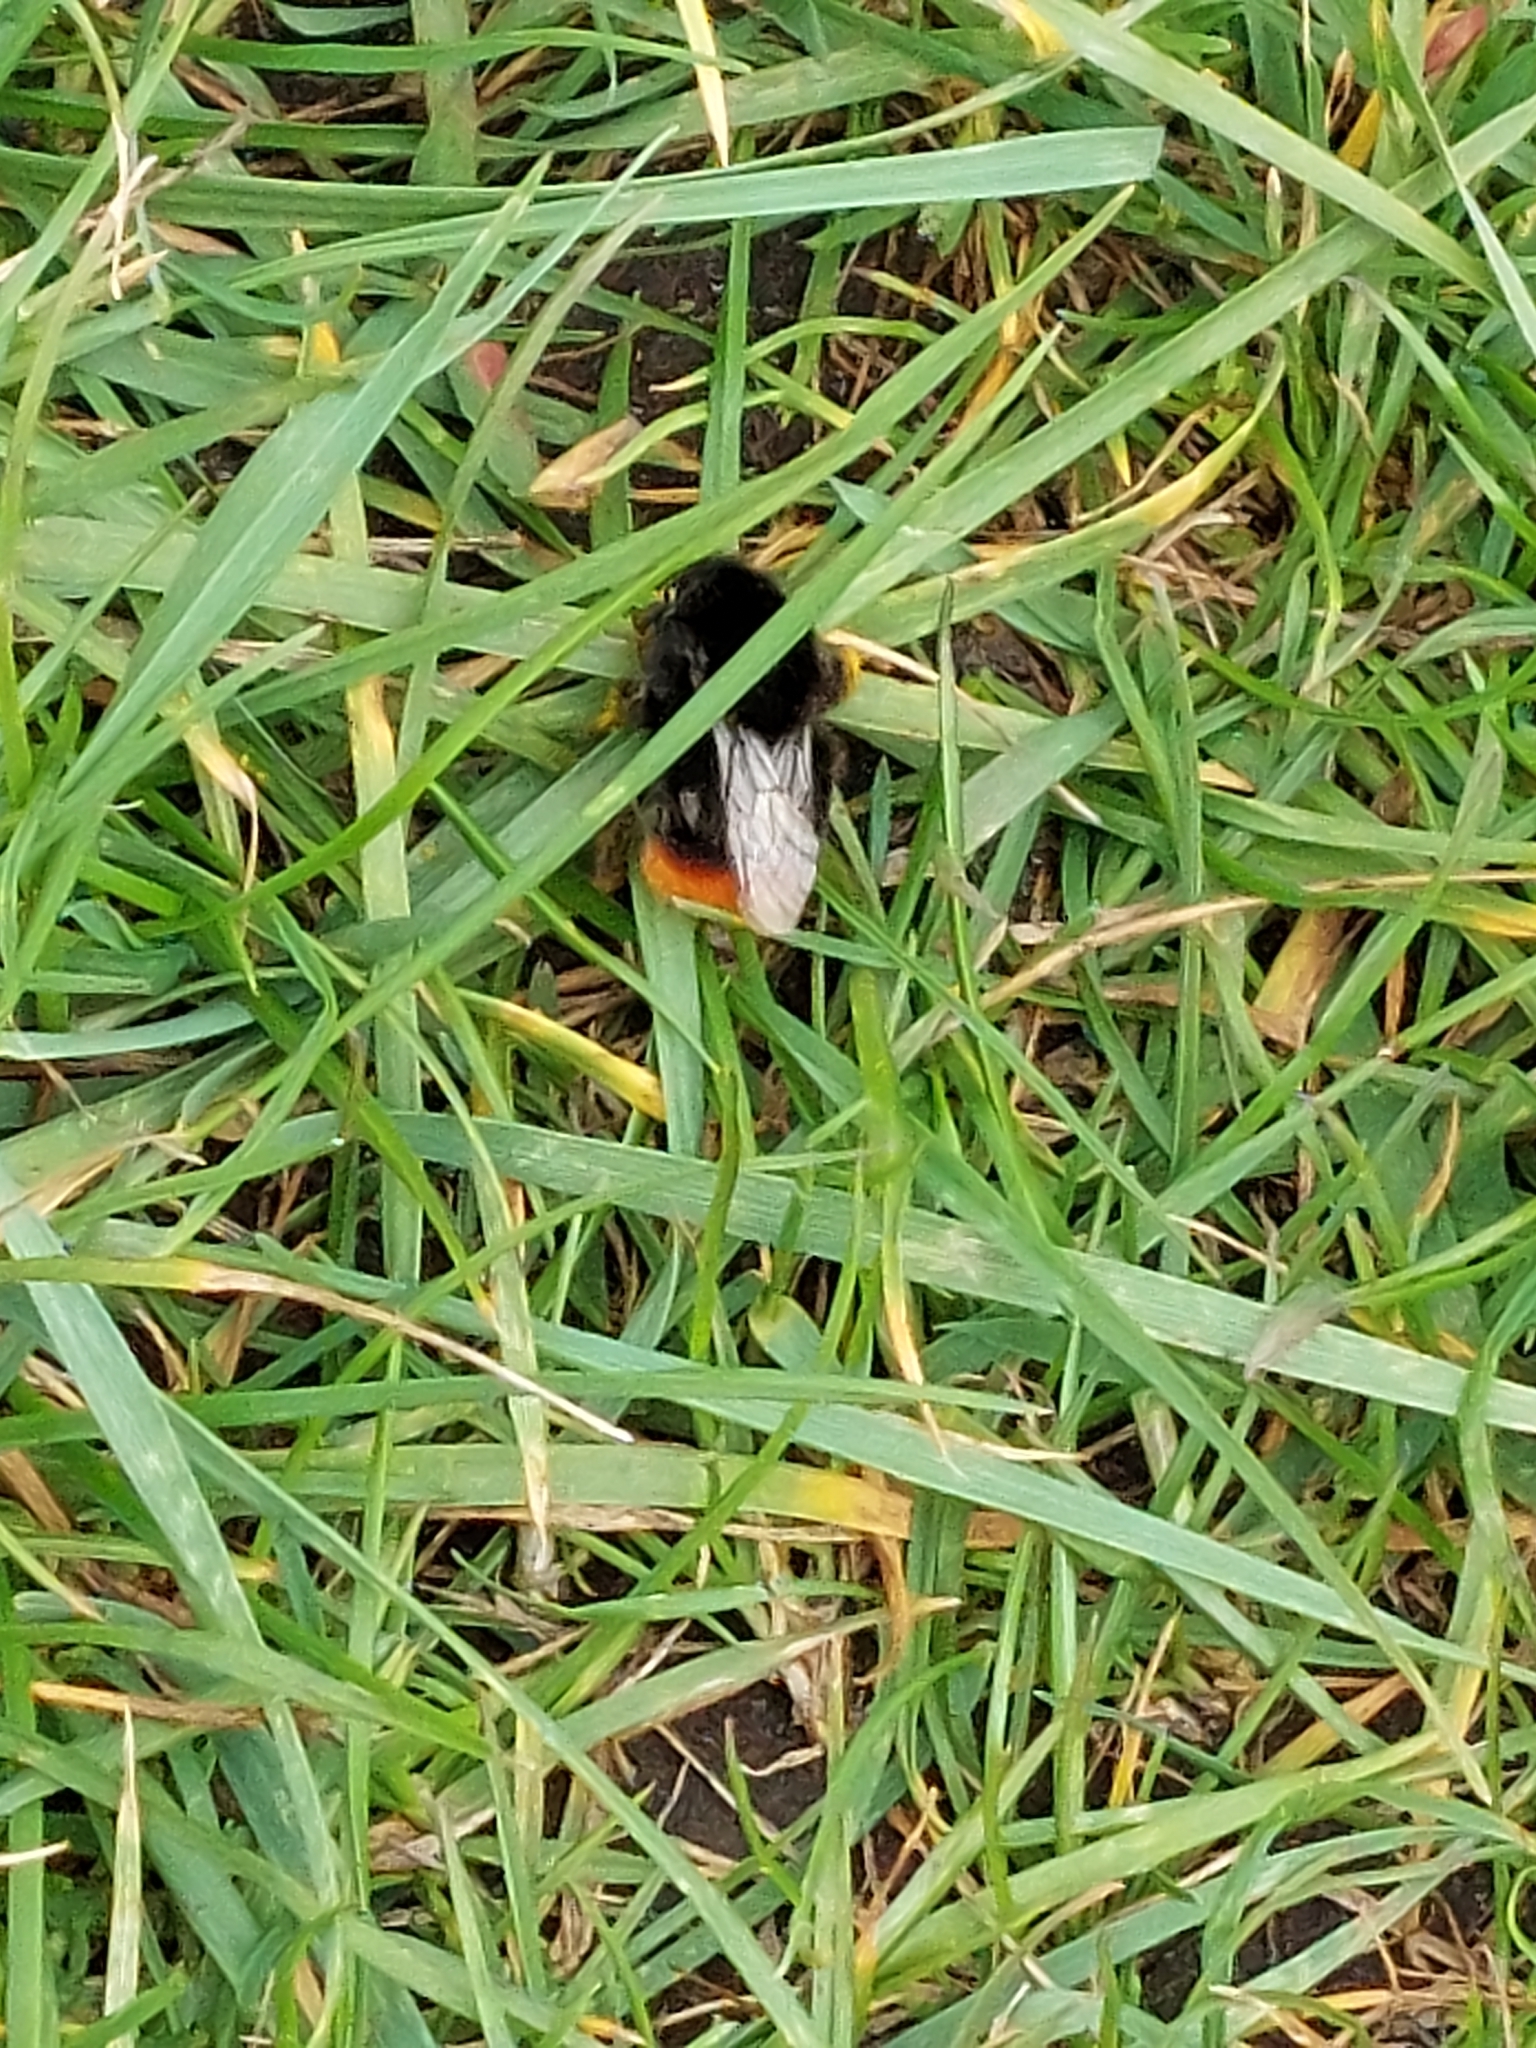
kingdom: Animalia
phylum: Arthropoda
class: Insecta
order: Hymenoptera
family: Apidae
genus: Bombus
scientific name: Bombus lapidarius
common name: Large red-tailed humble-bee
